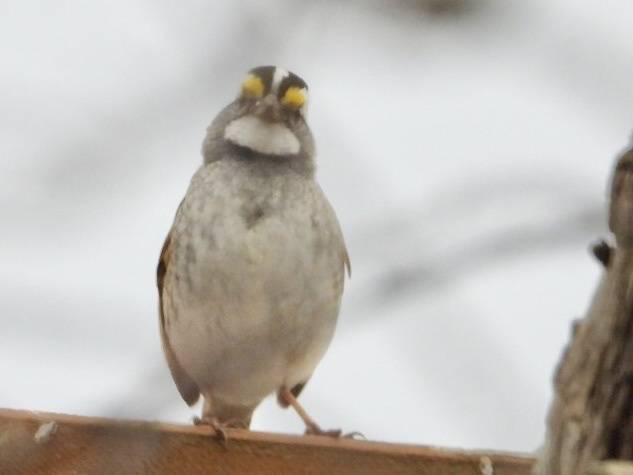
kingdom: Animalia
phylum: Chordata
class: Aves
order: Passeriformes
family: Passerellidae
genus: Zonotrichia
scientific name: Zonotrichia albicollis
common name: White-throated sparrow
